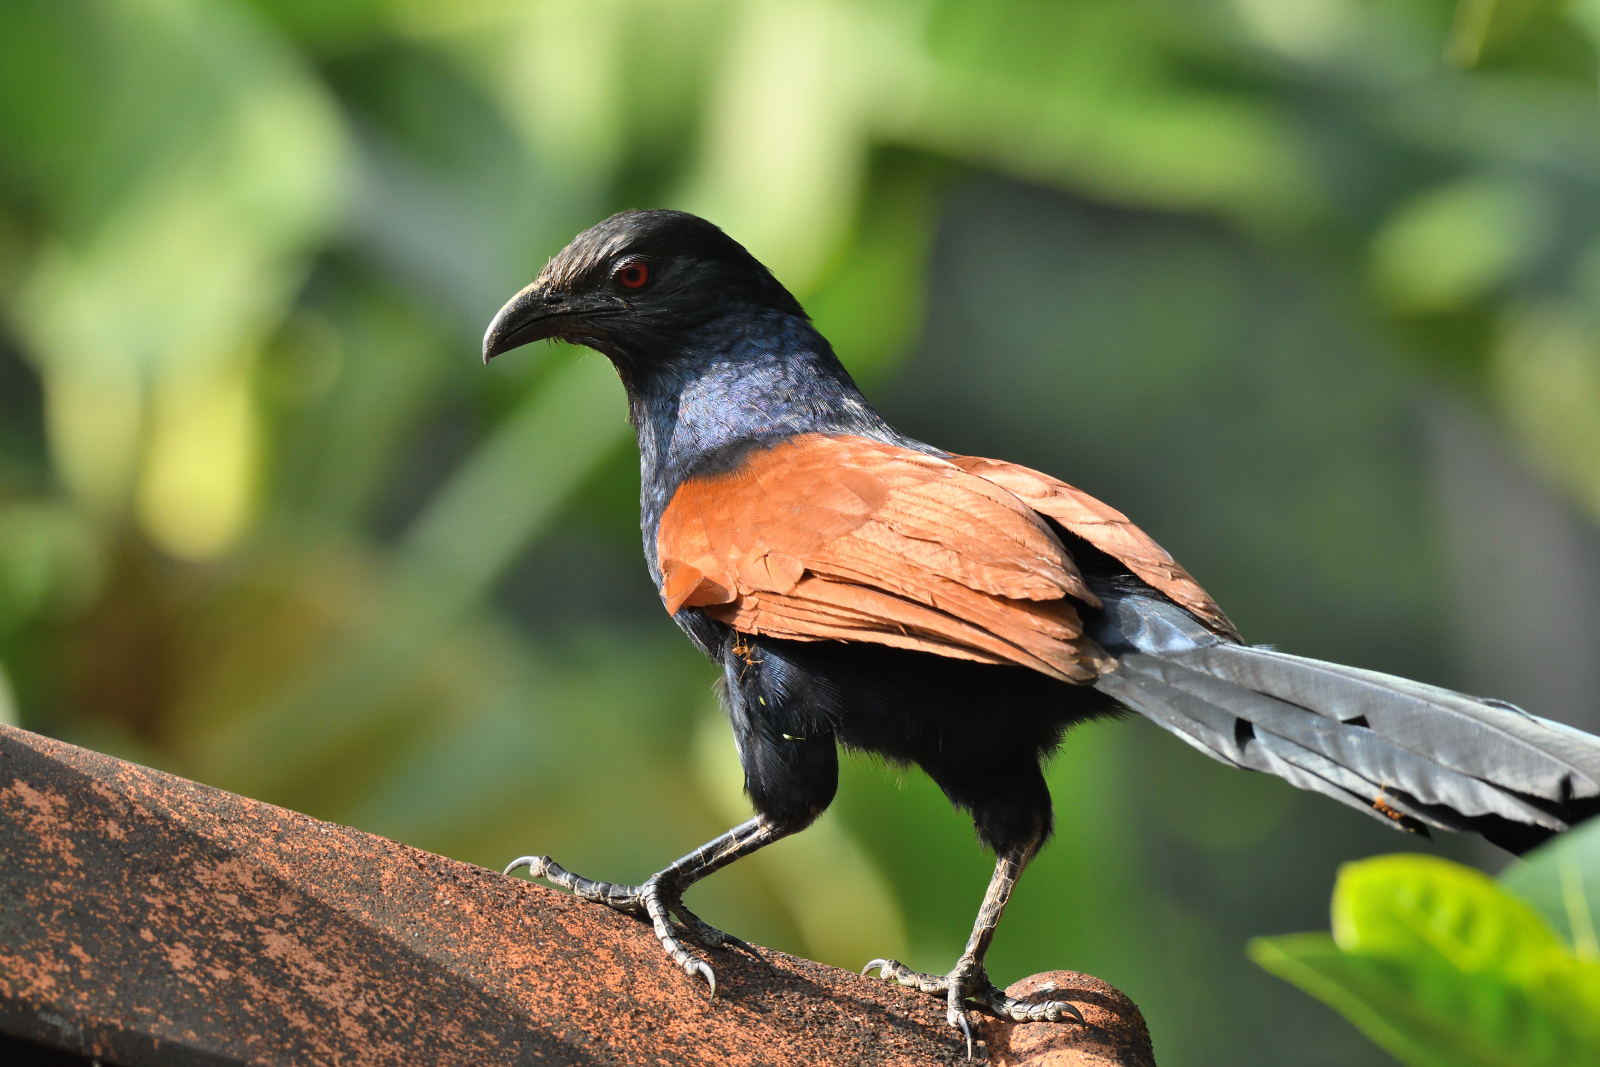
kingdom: Animalia
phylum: Chordata
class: Aves
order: Cuculiformes
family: Cuculidae
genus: Centropus
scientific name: Centropus sinensis
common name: Greater coucal
